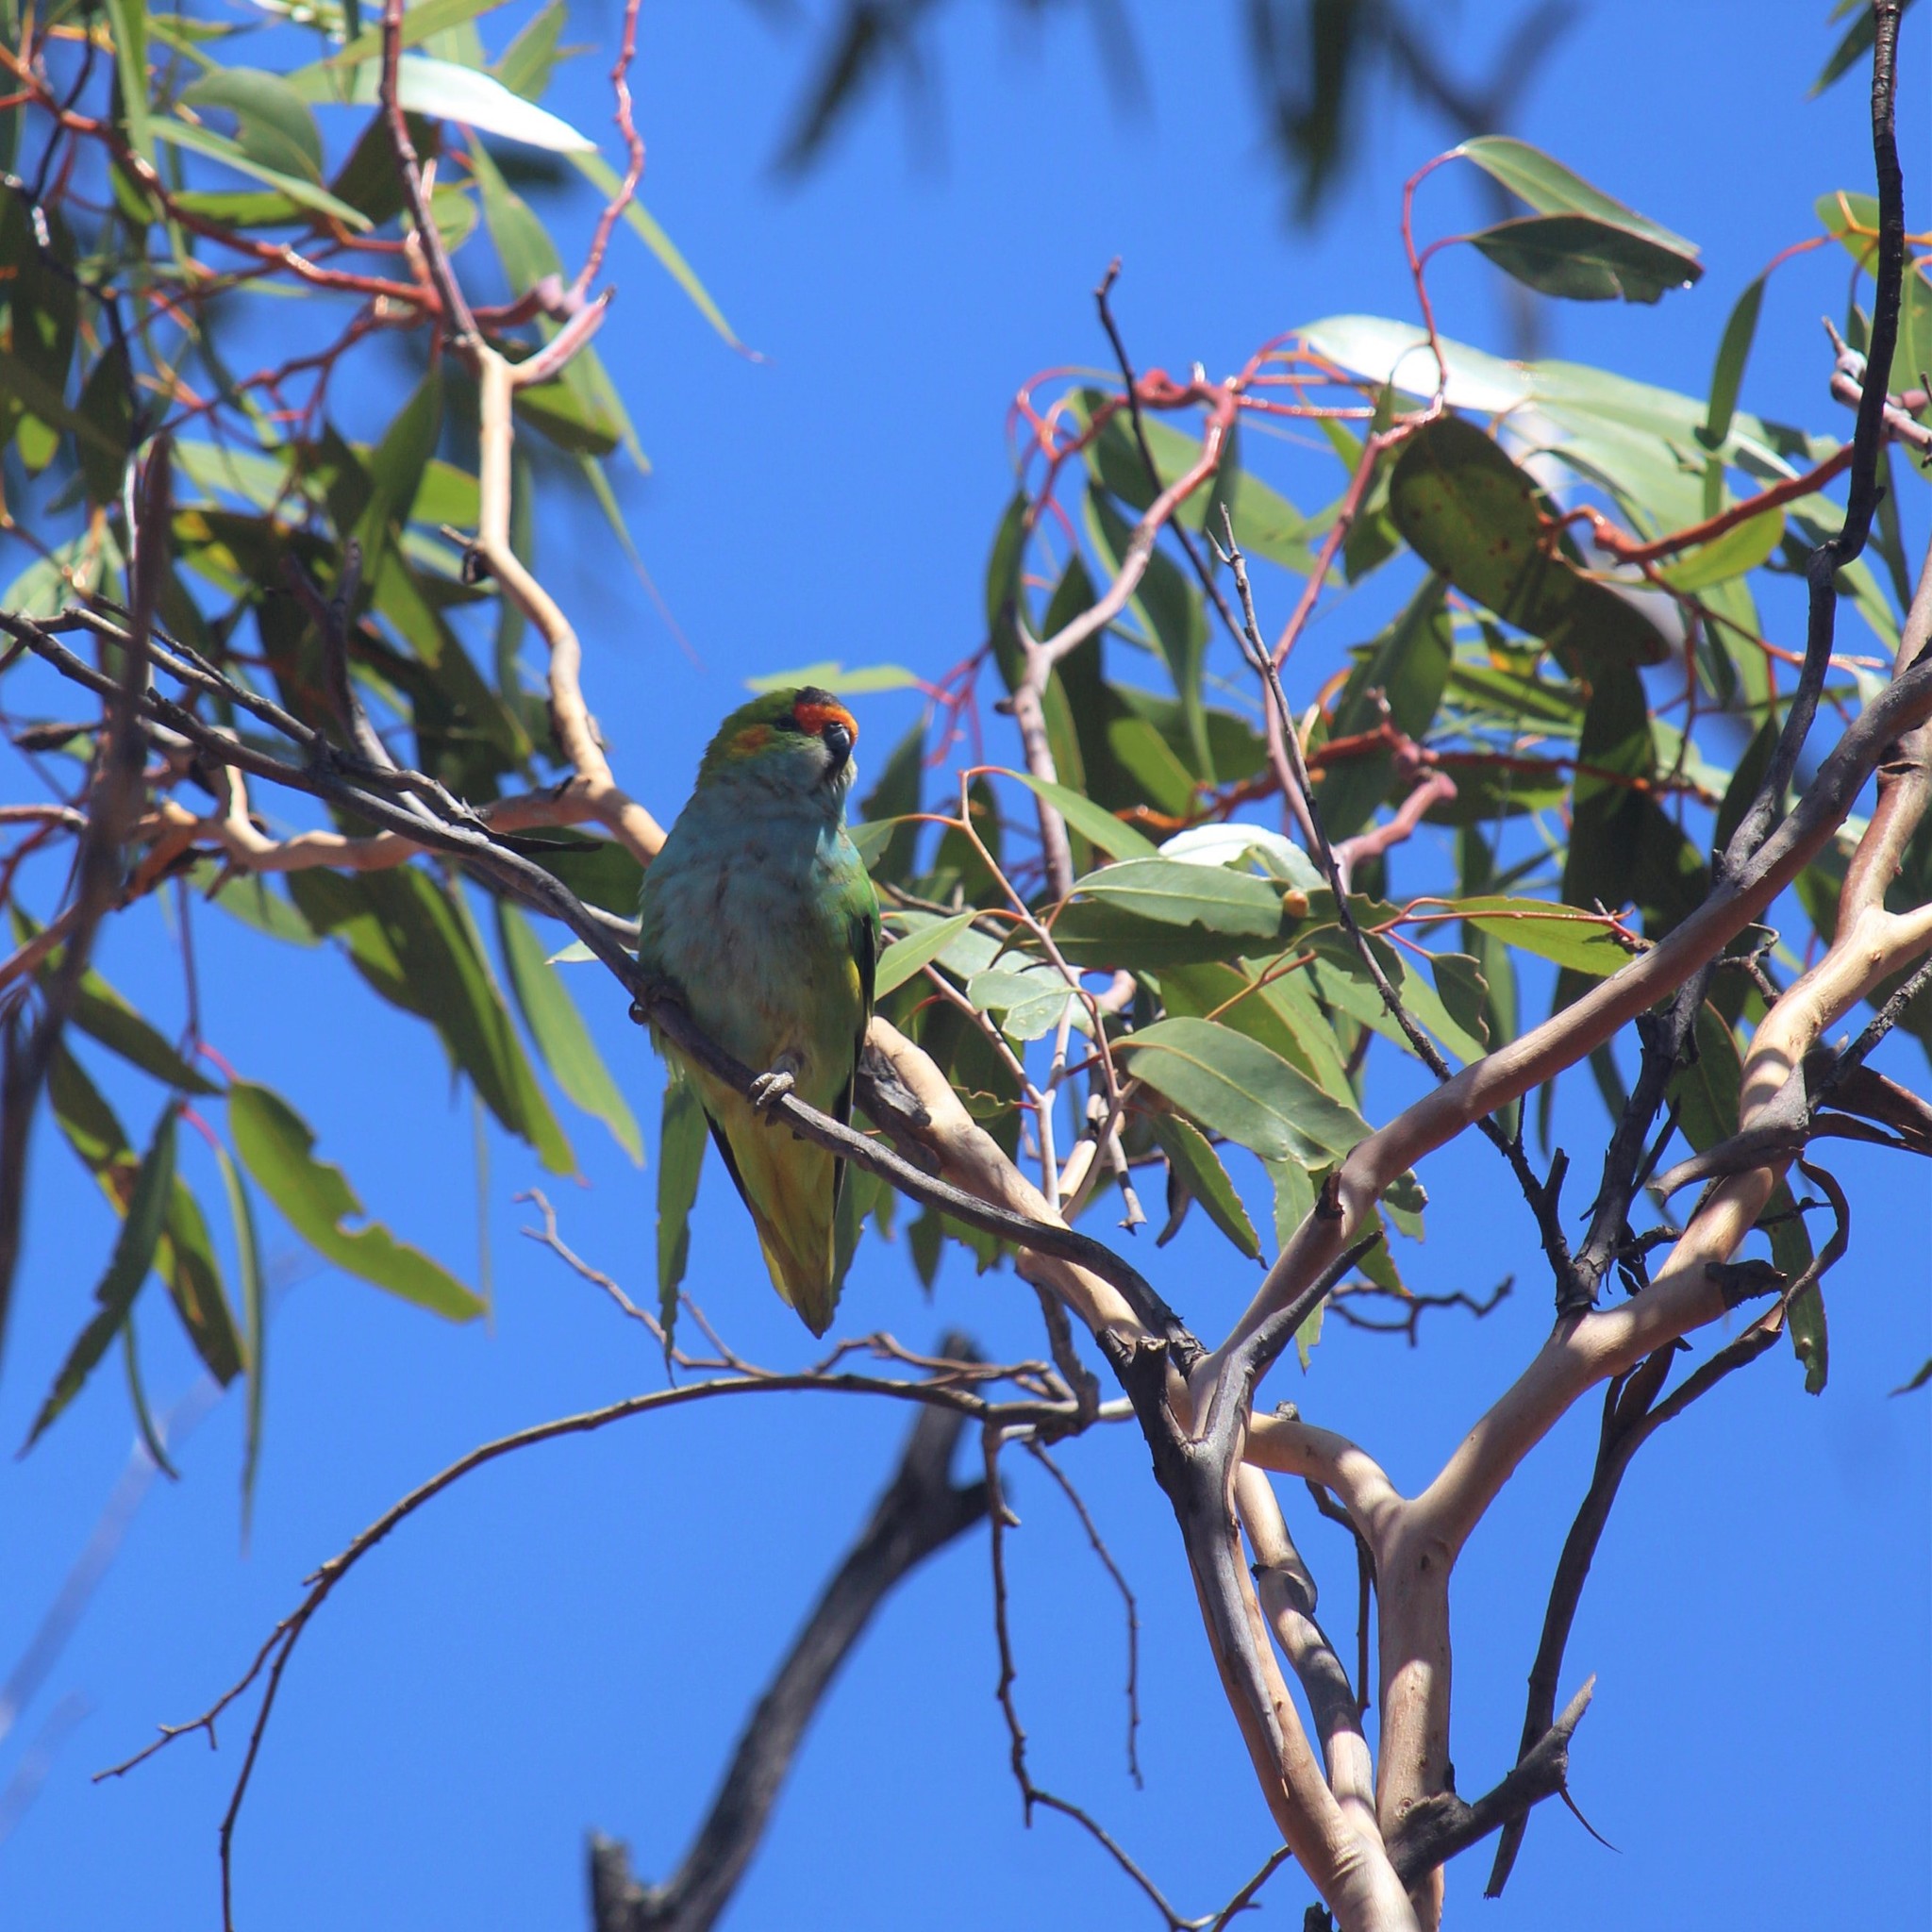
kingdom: Animalia
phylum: Chordata
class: Aves
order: Psittaciformes
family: Psittaculidae
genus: Parvipsitta
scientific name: Parvipsitta porphyrocephala
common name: Purple-crowned lorikeet
